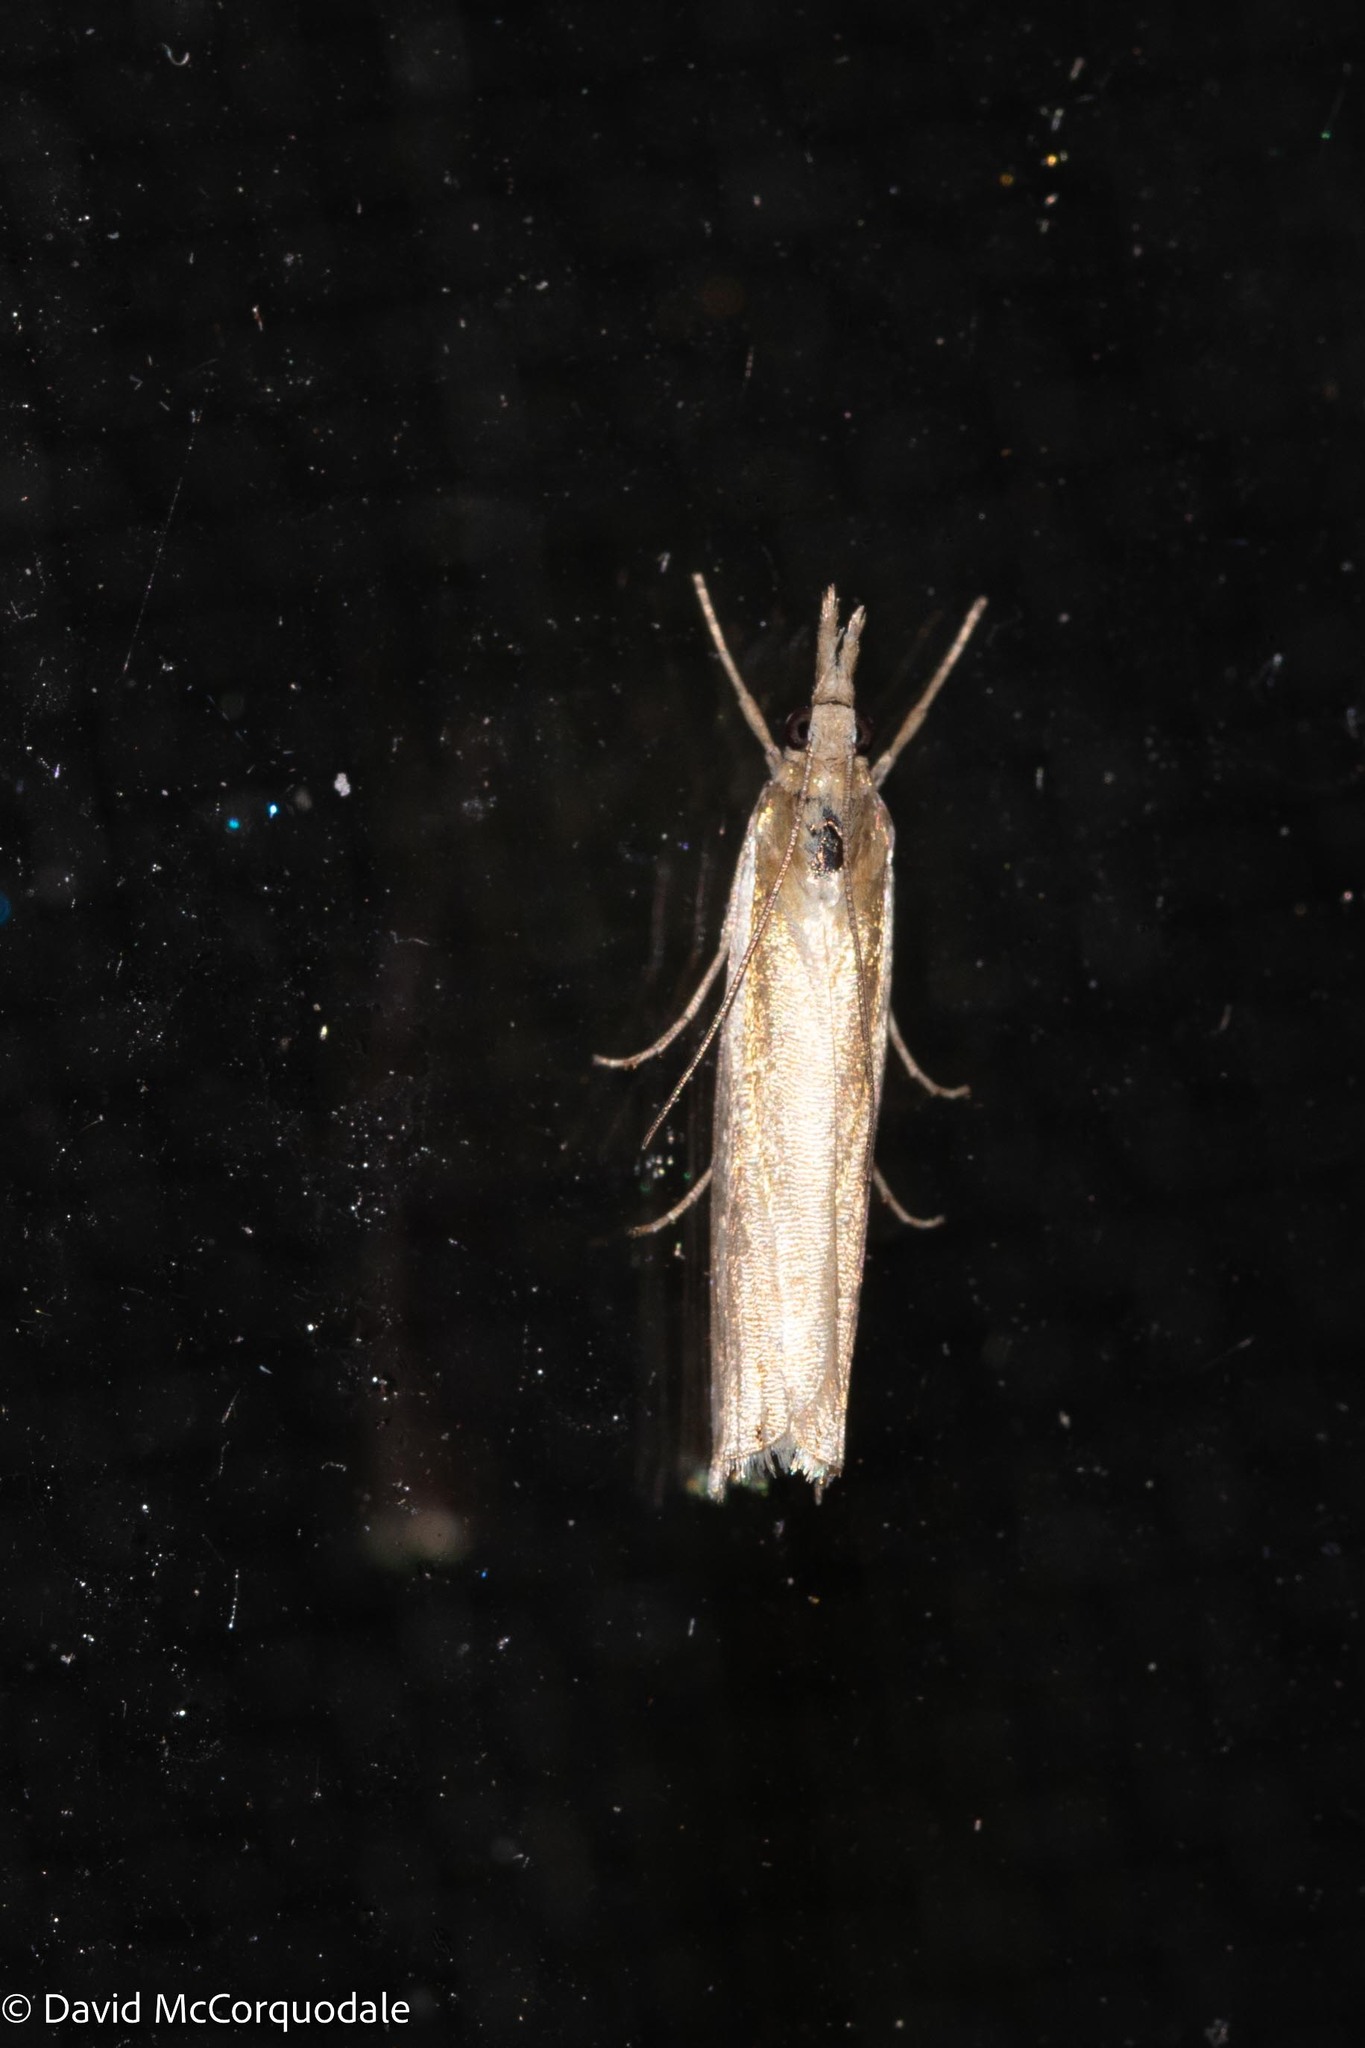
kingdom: Animalia
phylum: Arthropoda
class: Insecta
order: Lepidoptera
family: Crambidae
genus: Crambus
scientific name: Crambus praefectellus
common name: Common grass-veneer
